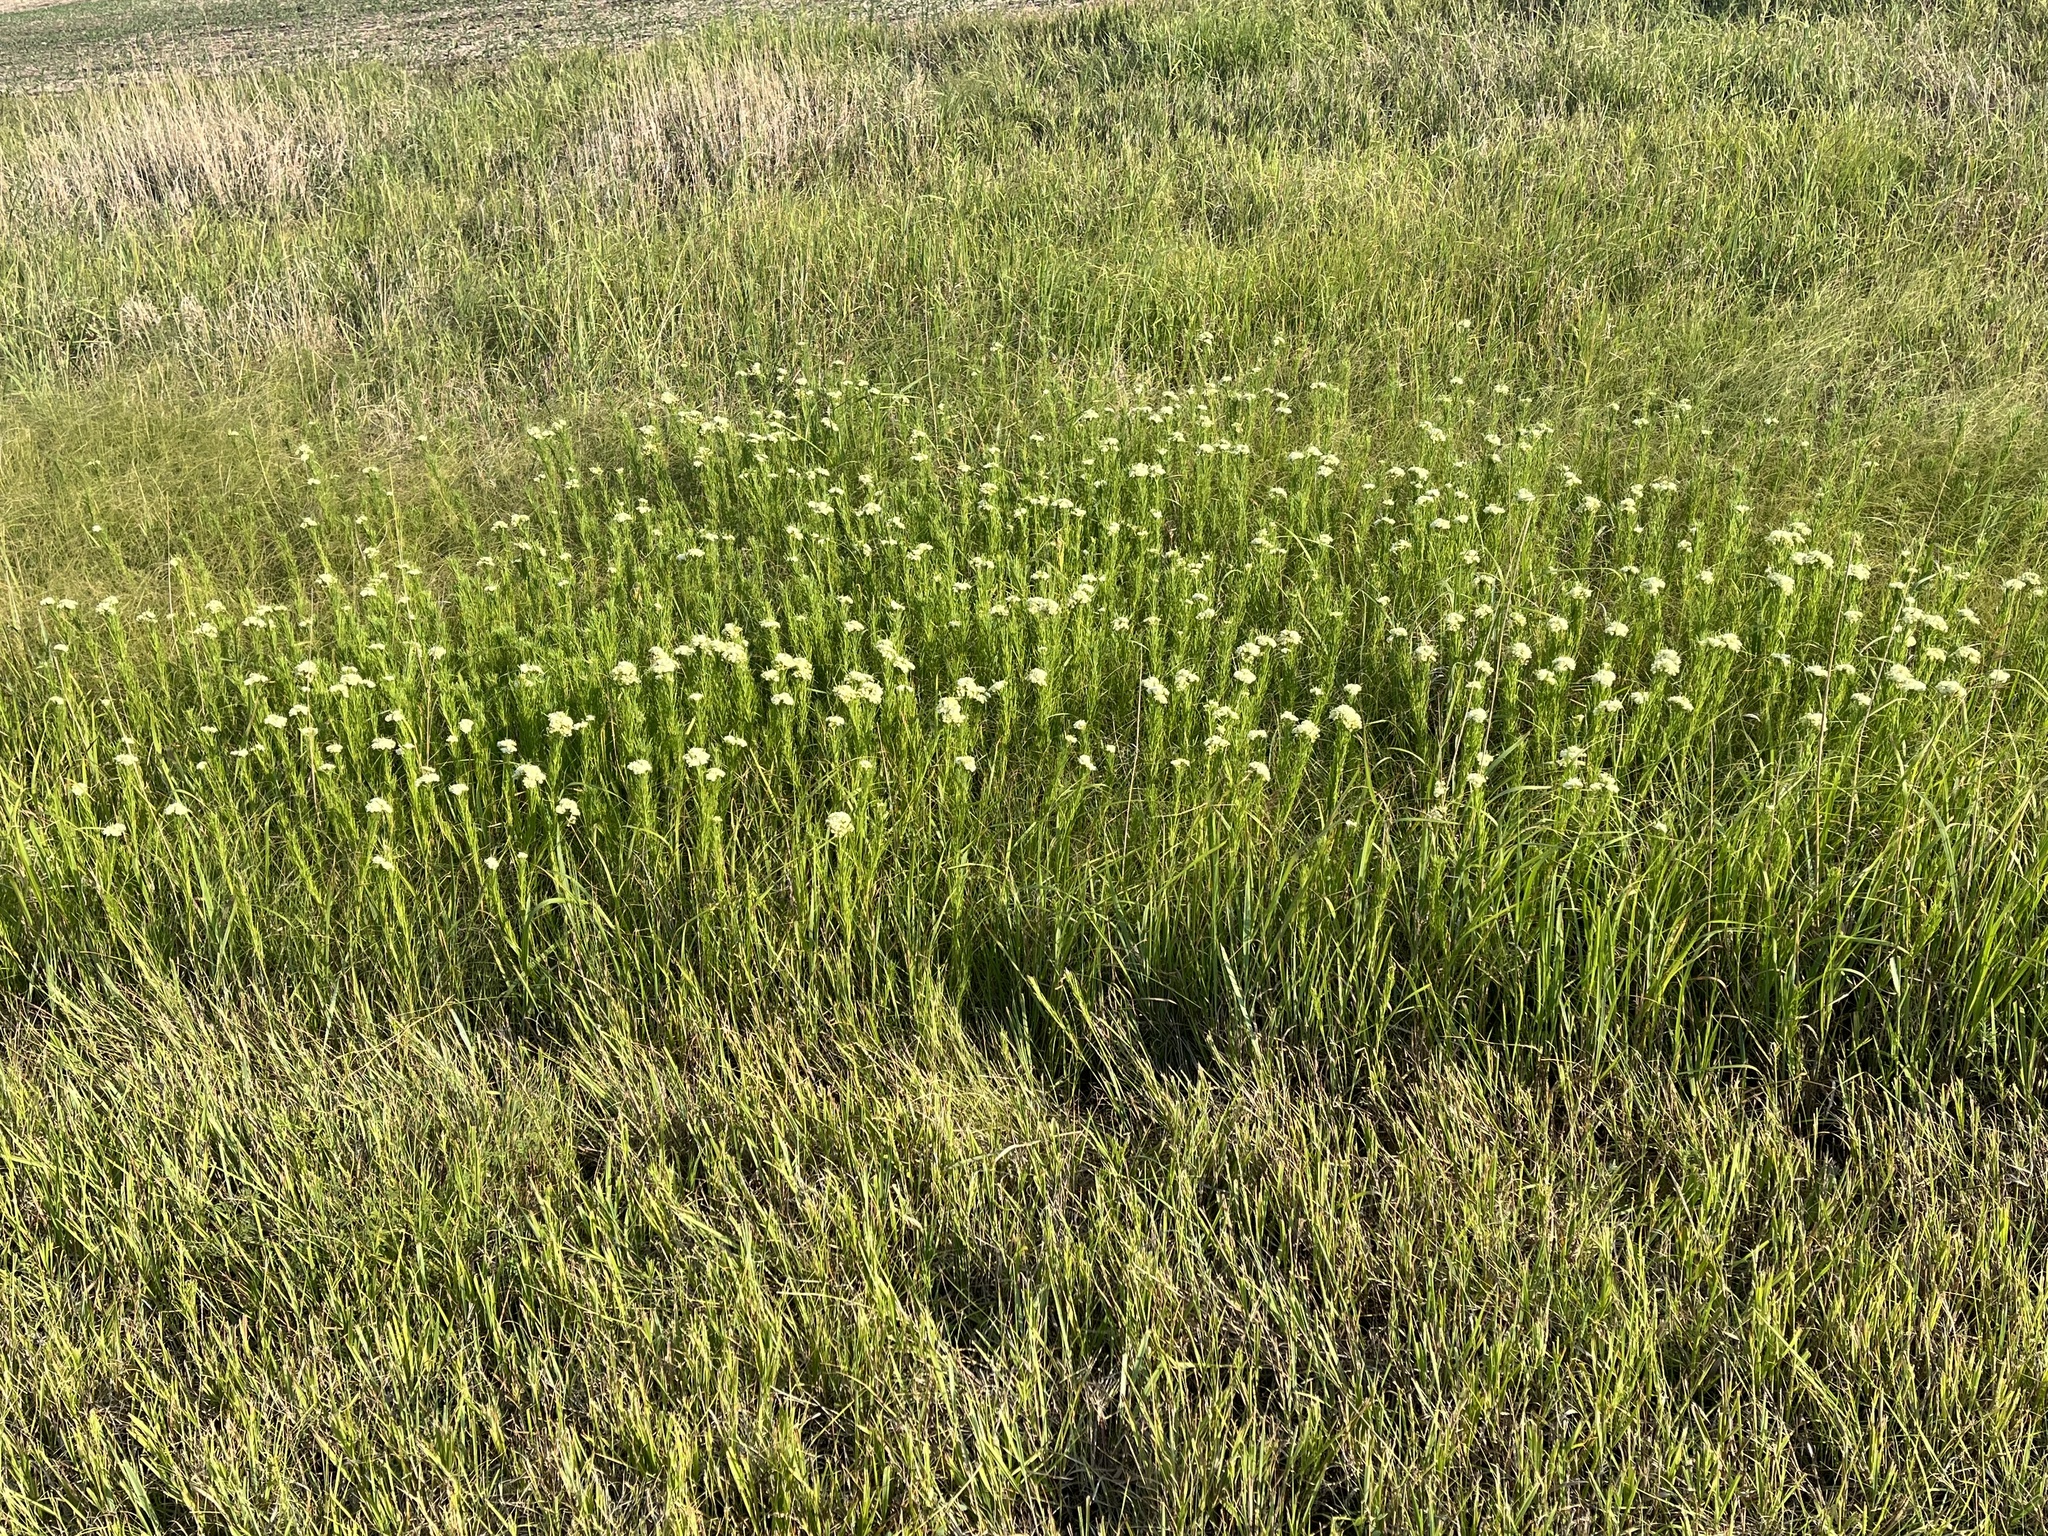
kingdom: Plantae
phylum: Tracheophyta
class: Magnoliopsida
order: Gentianales
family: Apocynaceae
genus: Asclepias
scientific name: Asclepias verticillata
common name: Eastern whorled milkweed
